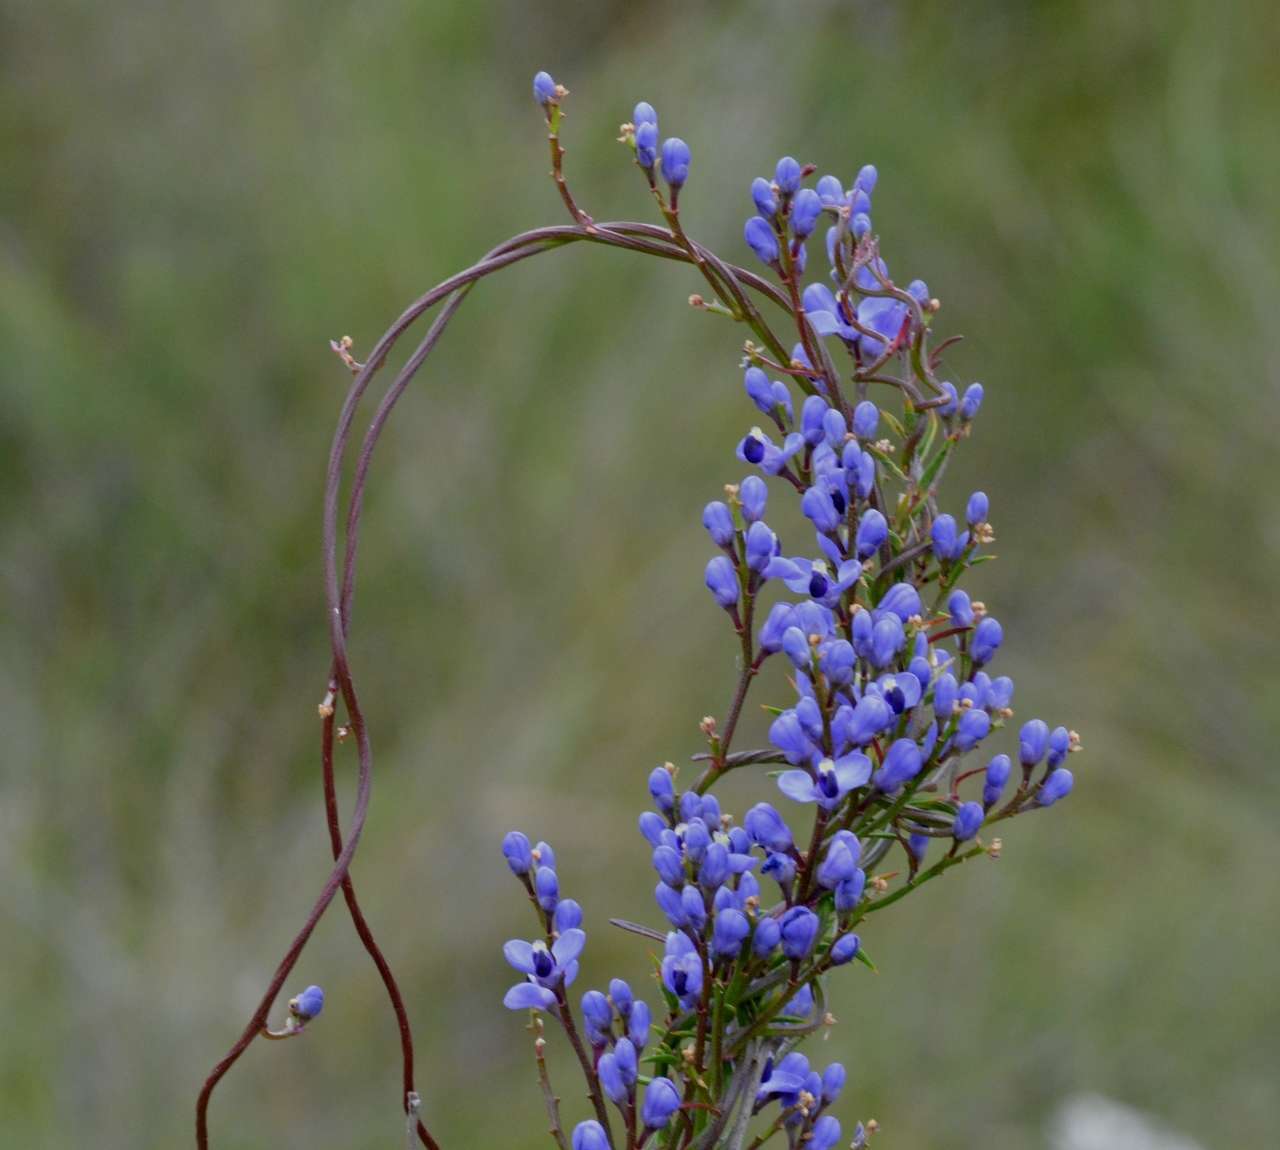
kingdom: Plantae
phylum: Tracheophyta
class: Magnoliopsida
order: Fabales
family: Polygalaceae
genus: Comesperma
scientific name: Comesperma volubile
